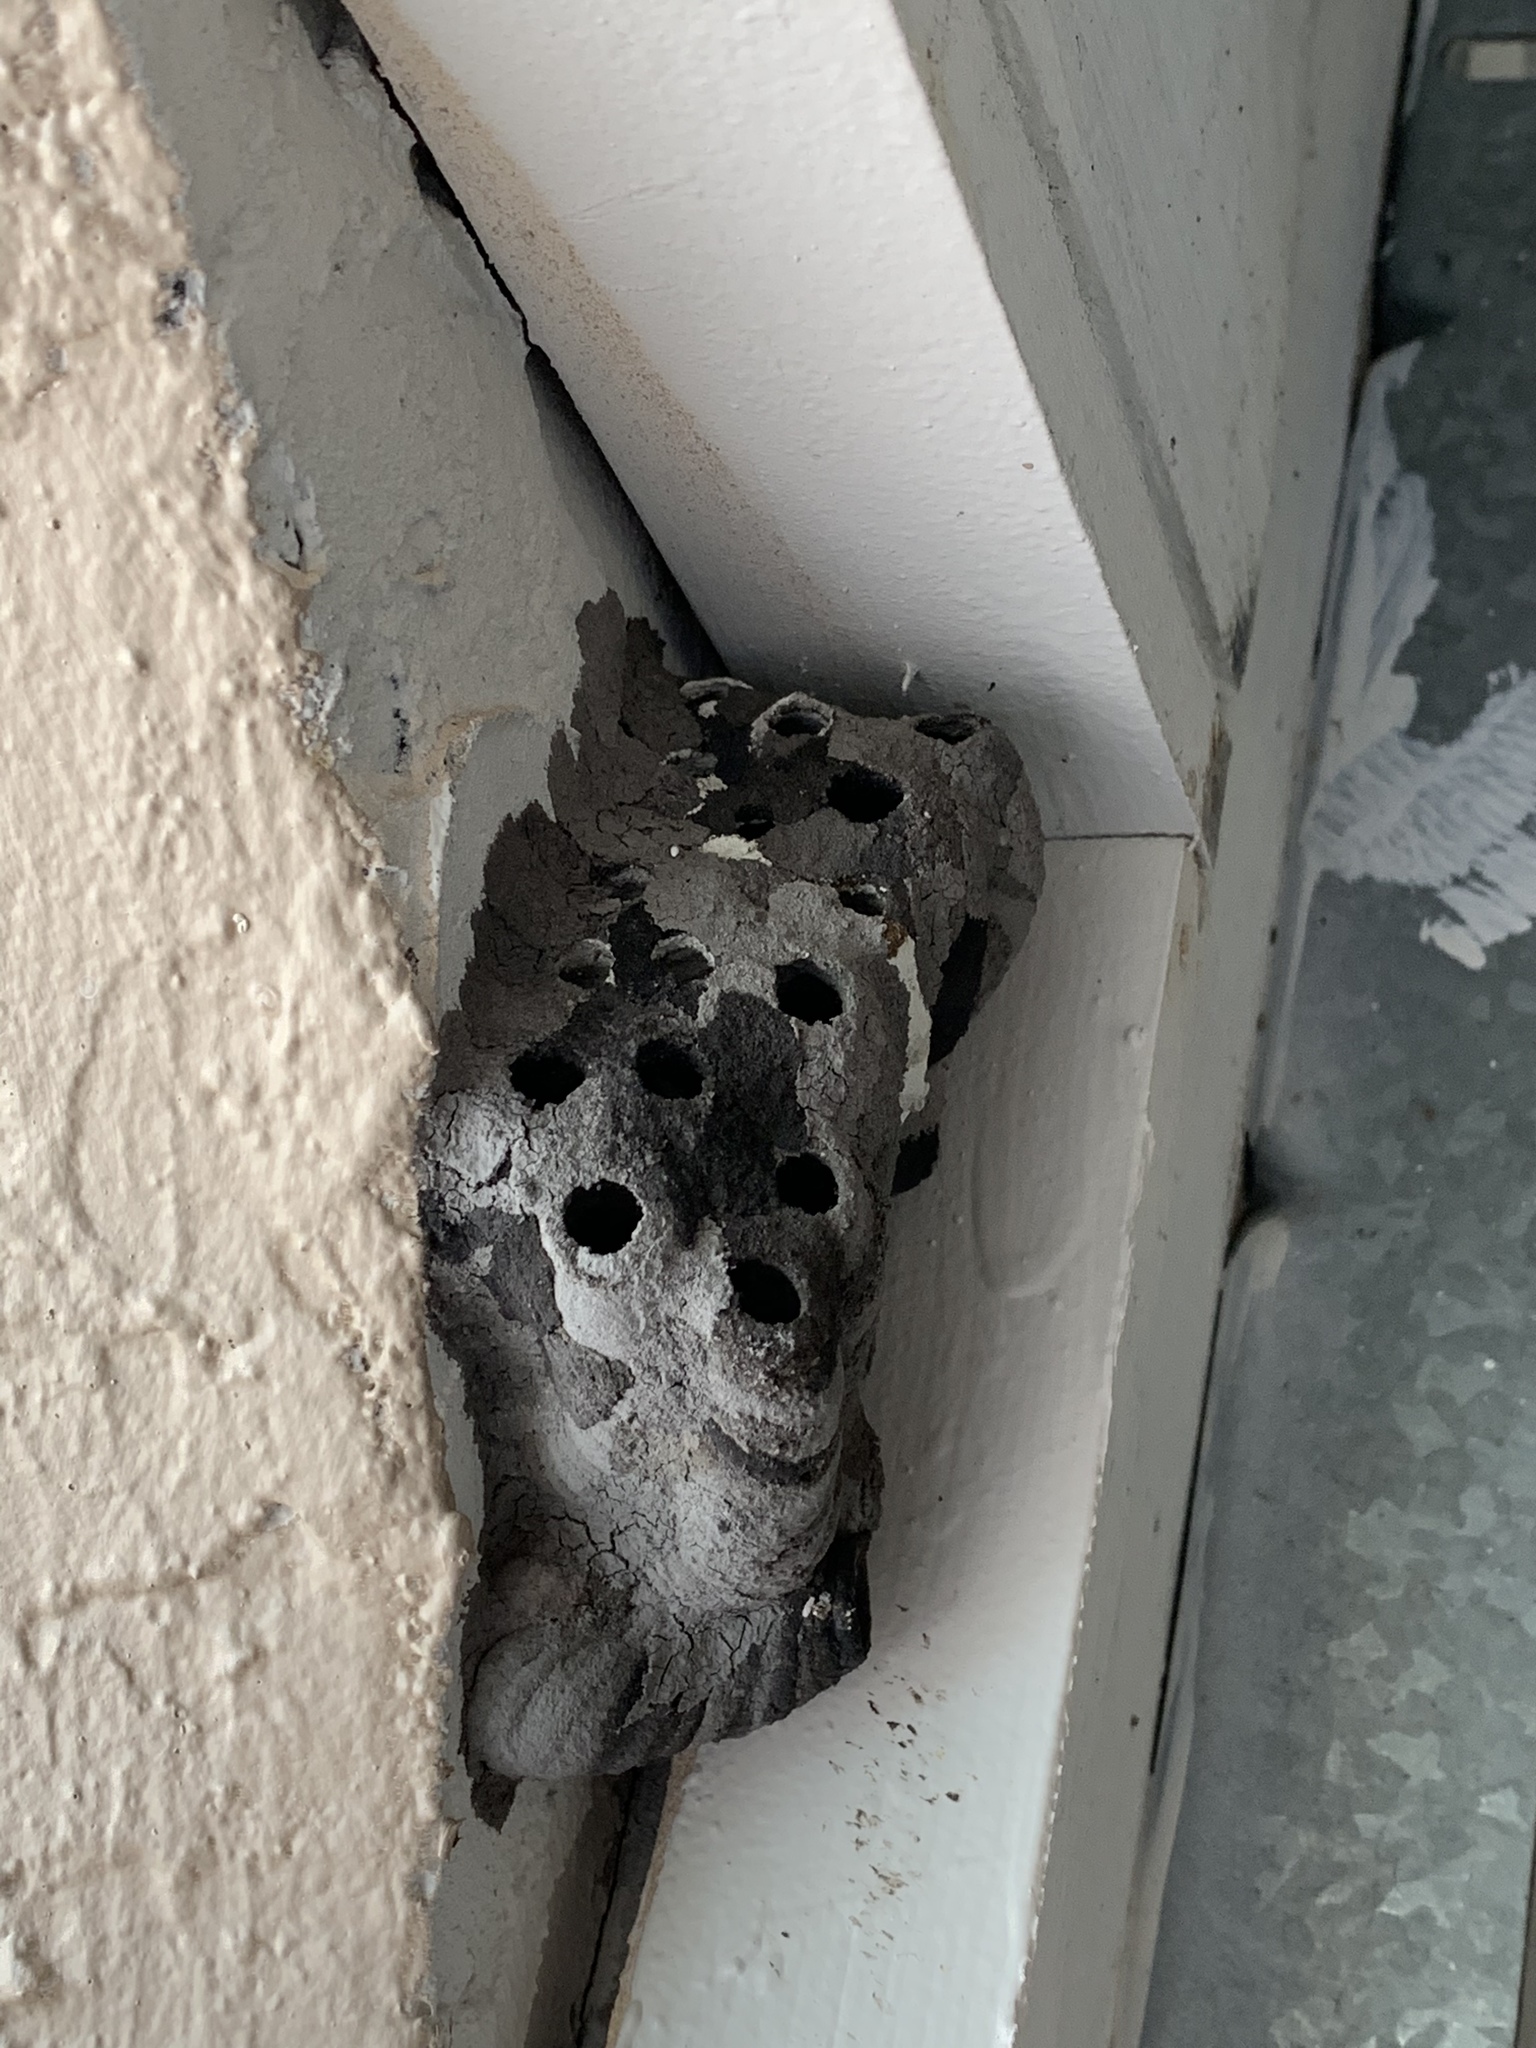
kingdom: Animalia
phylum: Arthropoda
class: Insecta
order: Hymenoptera
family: Sphecidae
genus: Sceliphron
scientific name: Sceliphron caementarium
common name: Mud dauber
